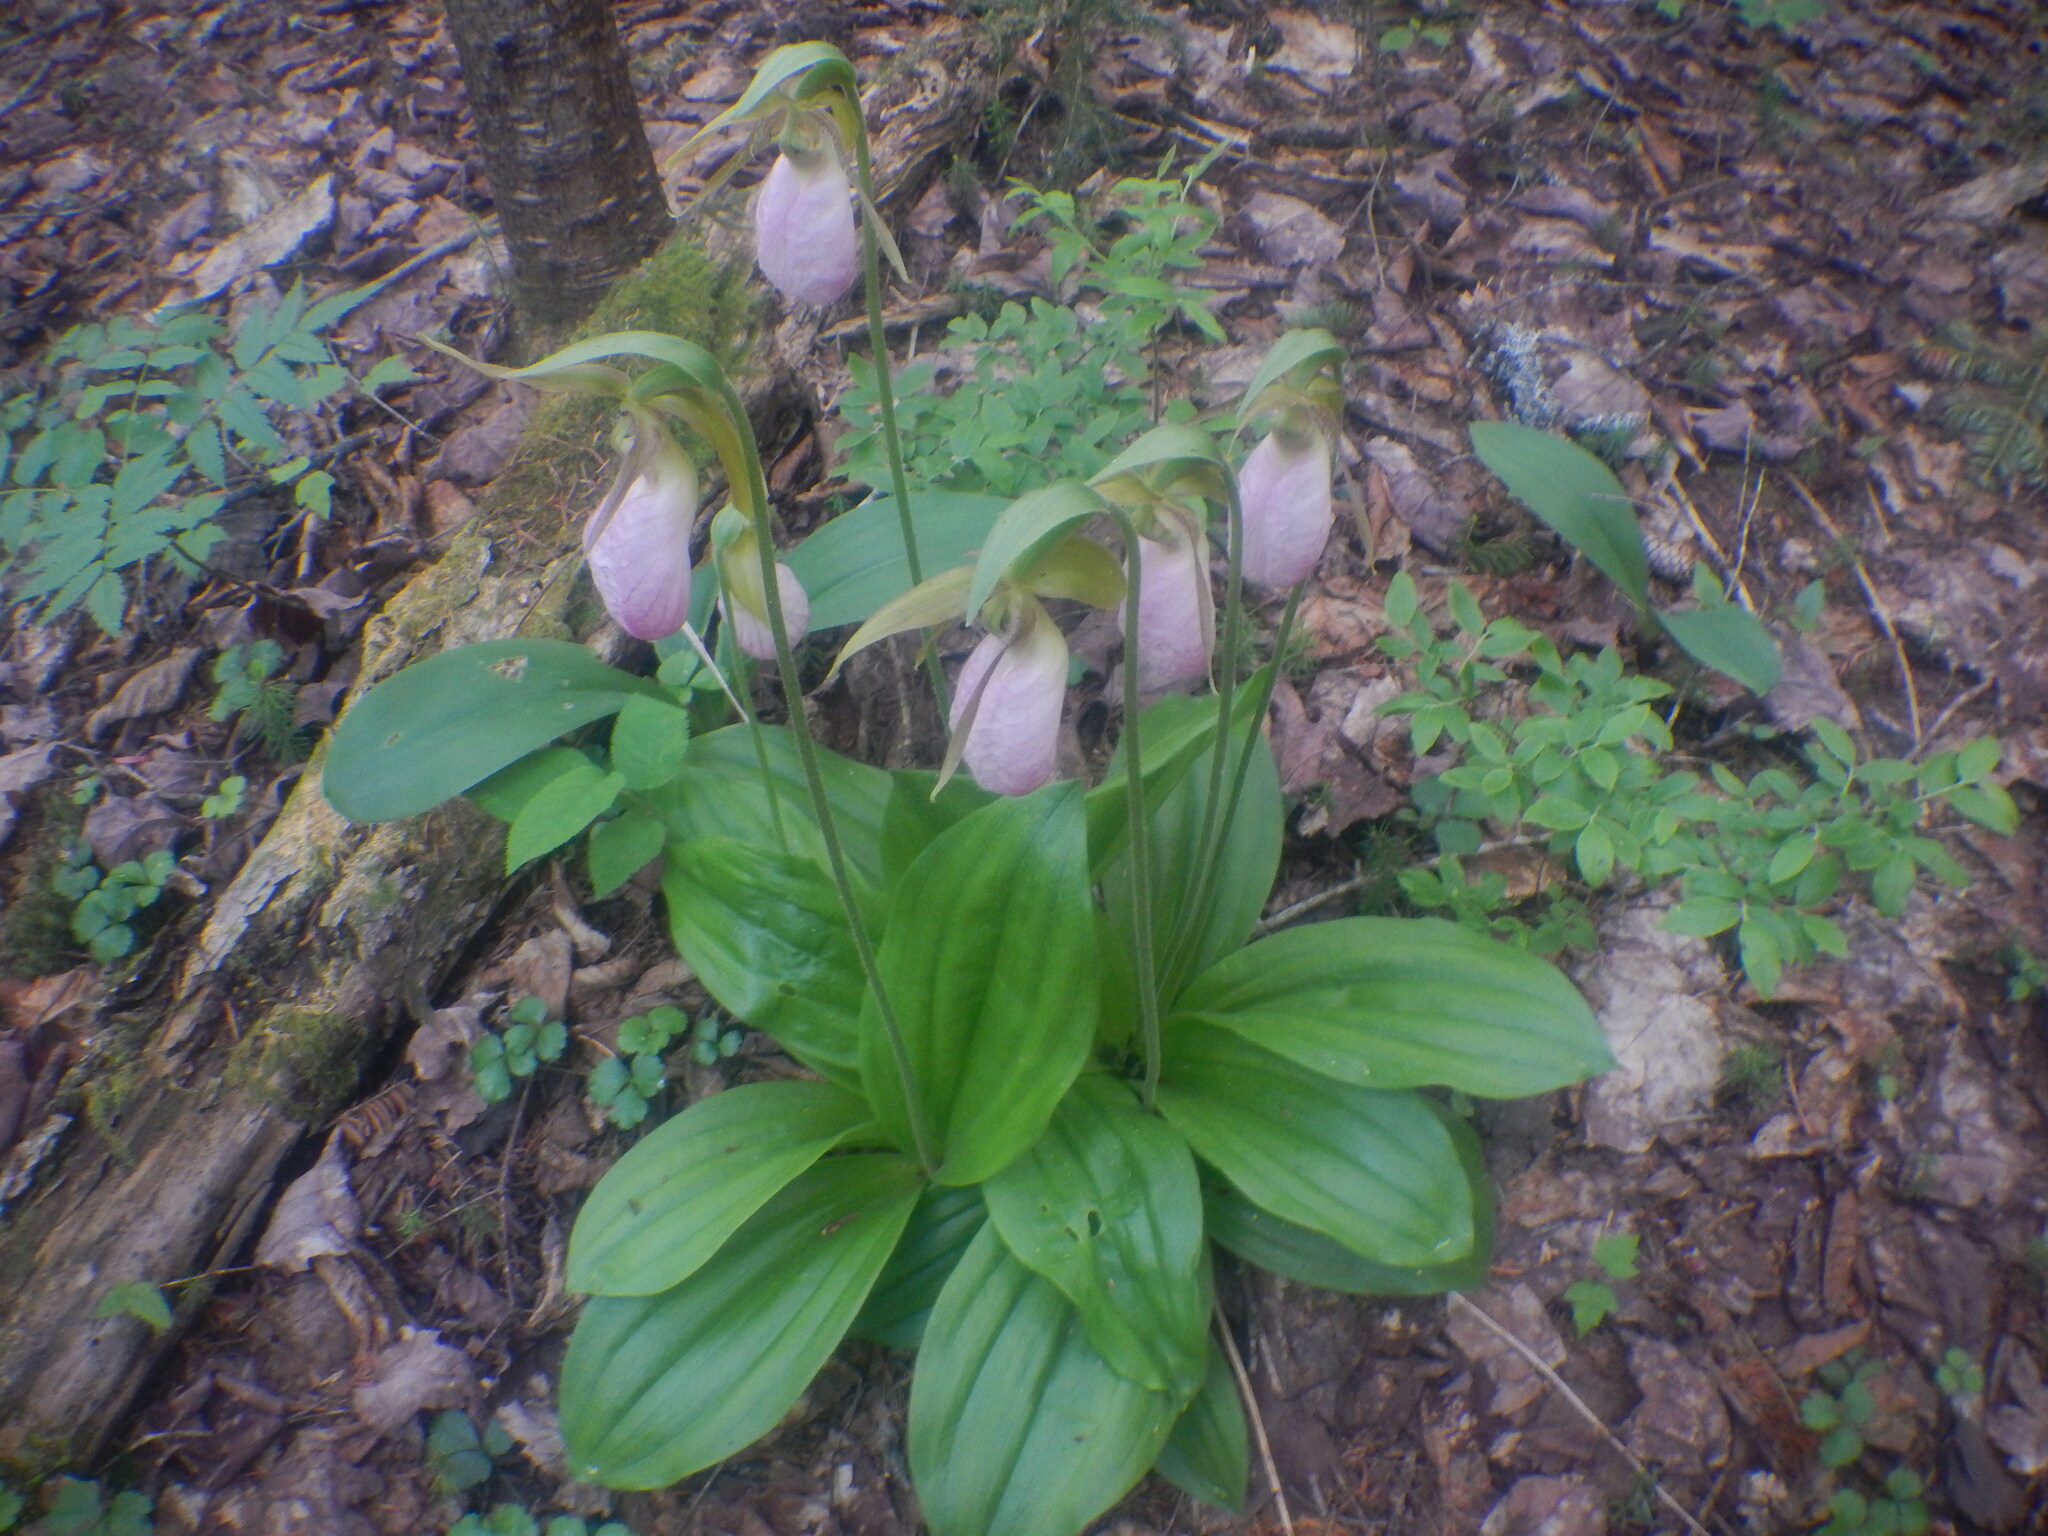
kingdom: Plantae
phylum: Tracheophyta
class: Liliopsida
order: Asparagales
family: Orchidaceae
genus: Cypripedium
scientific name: Cypripedium acaule
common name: Pink lady's-slipper
